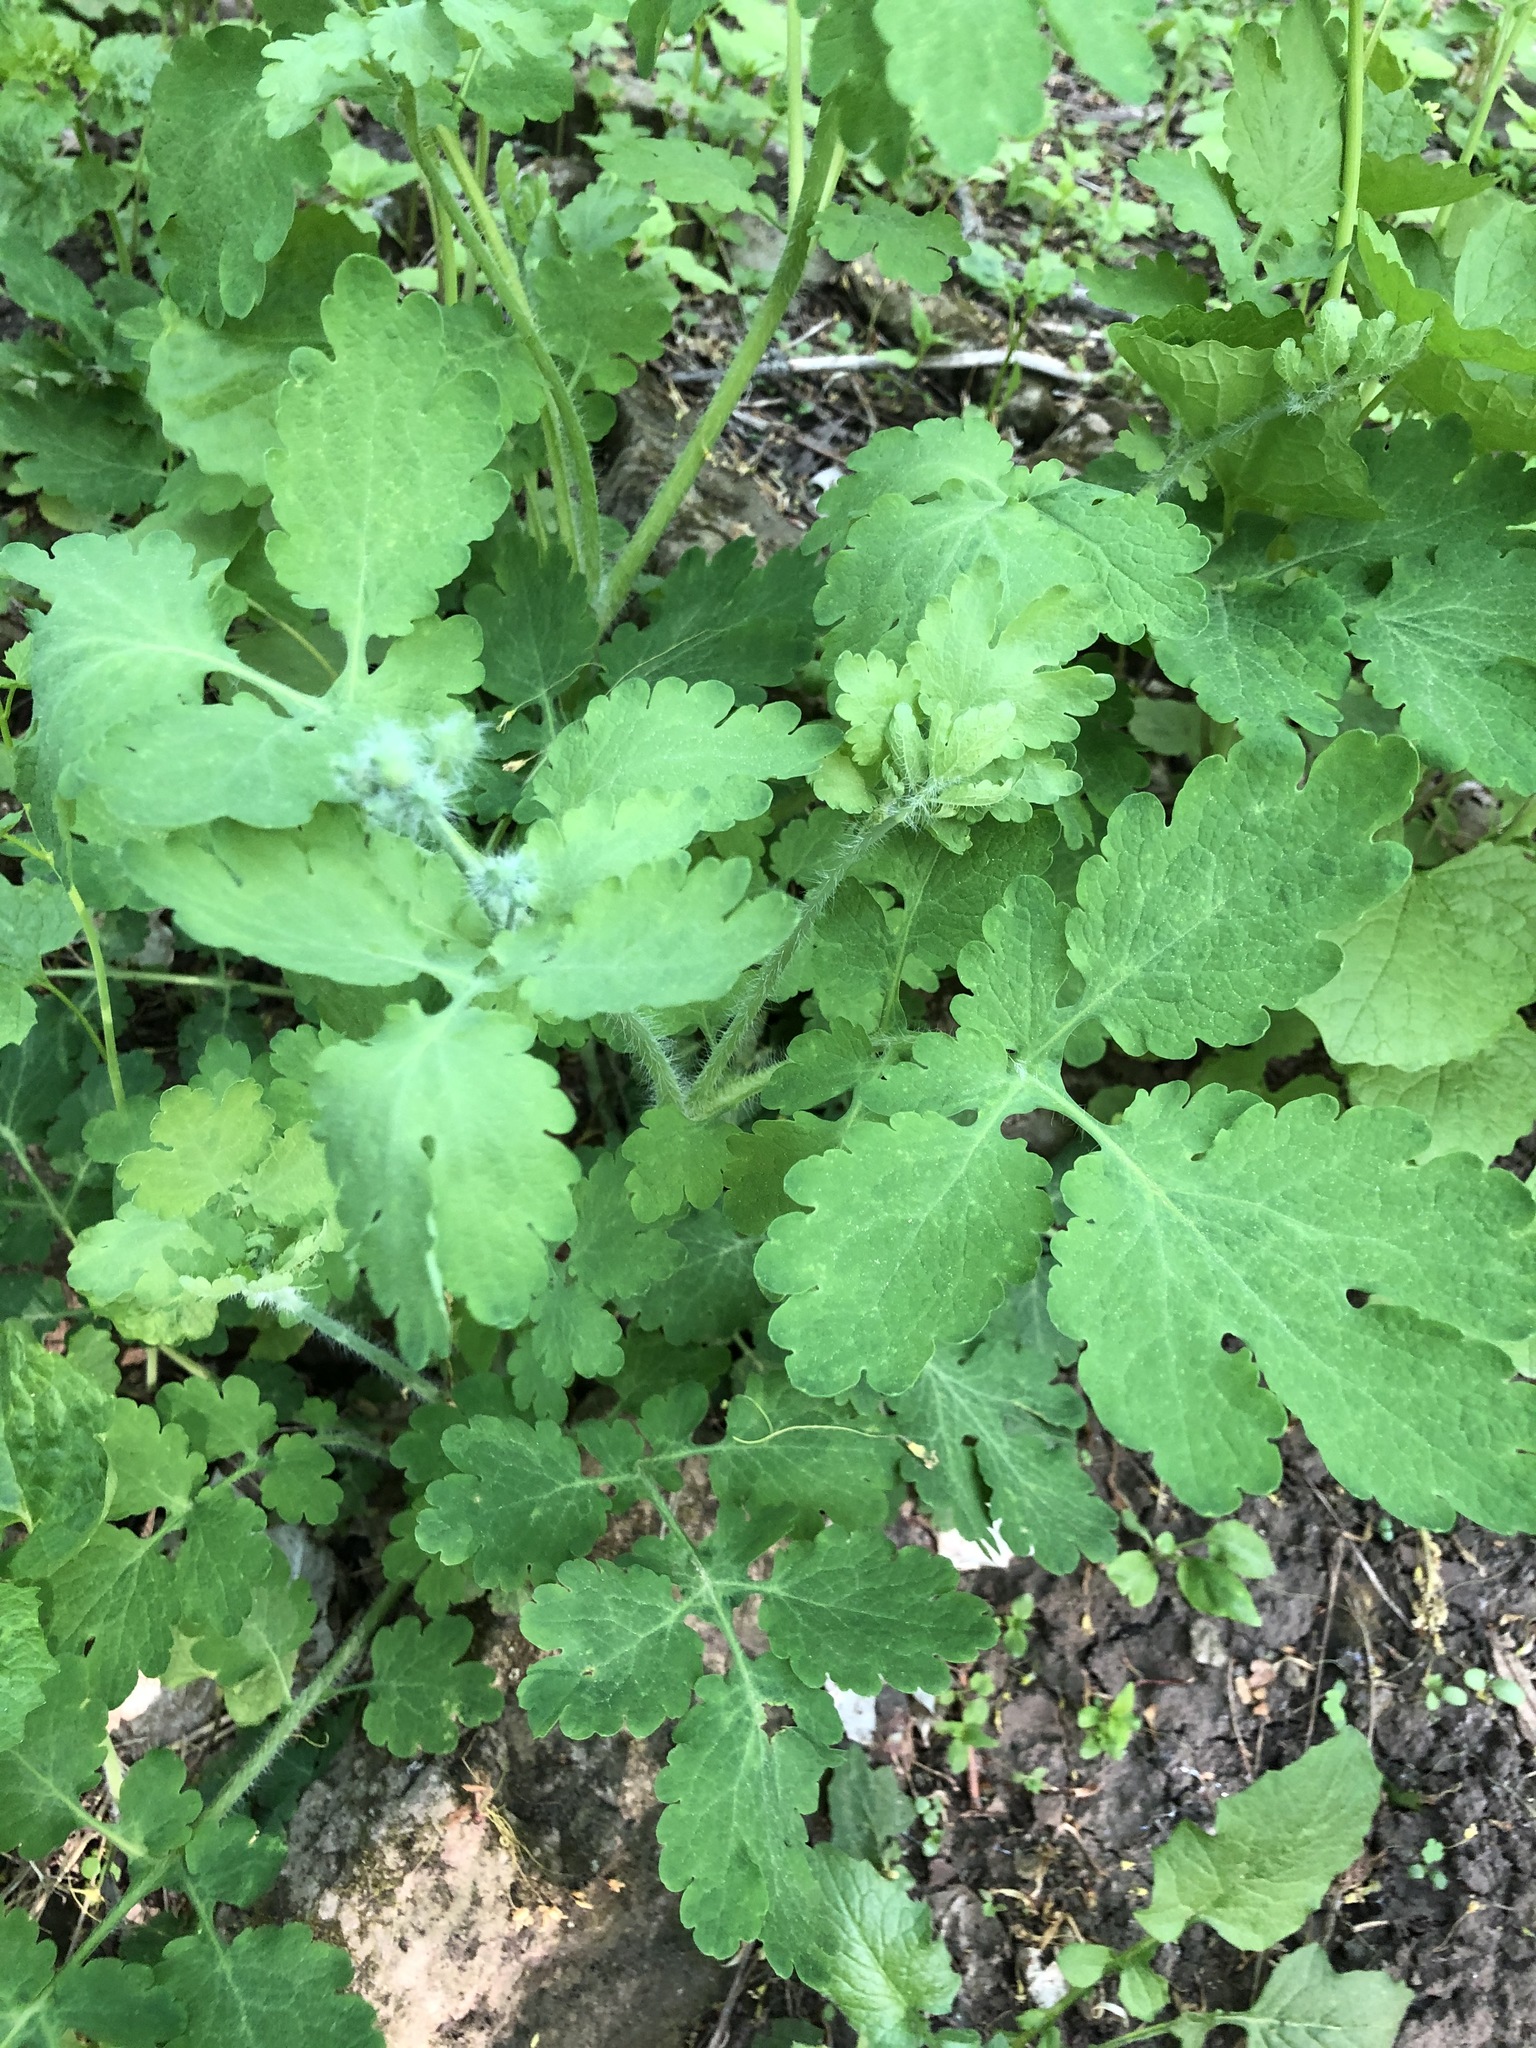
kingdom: Plantae
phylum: Tracheophyta
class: Magnoliopsida
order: Ranunculales
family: Papaveraceae
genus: Chelidonium
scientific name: Chelidonium majus
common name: Greater celandine
